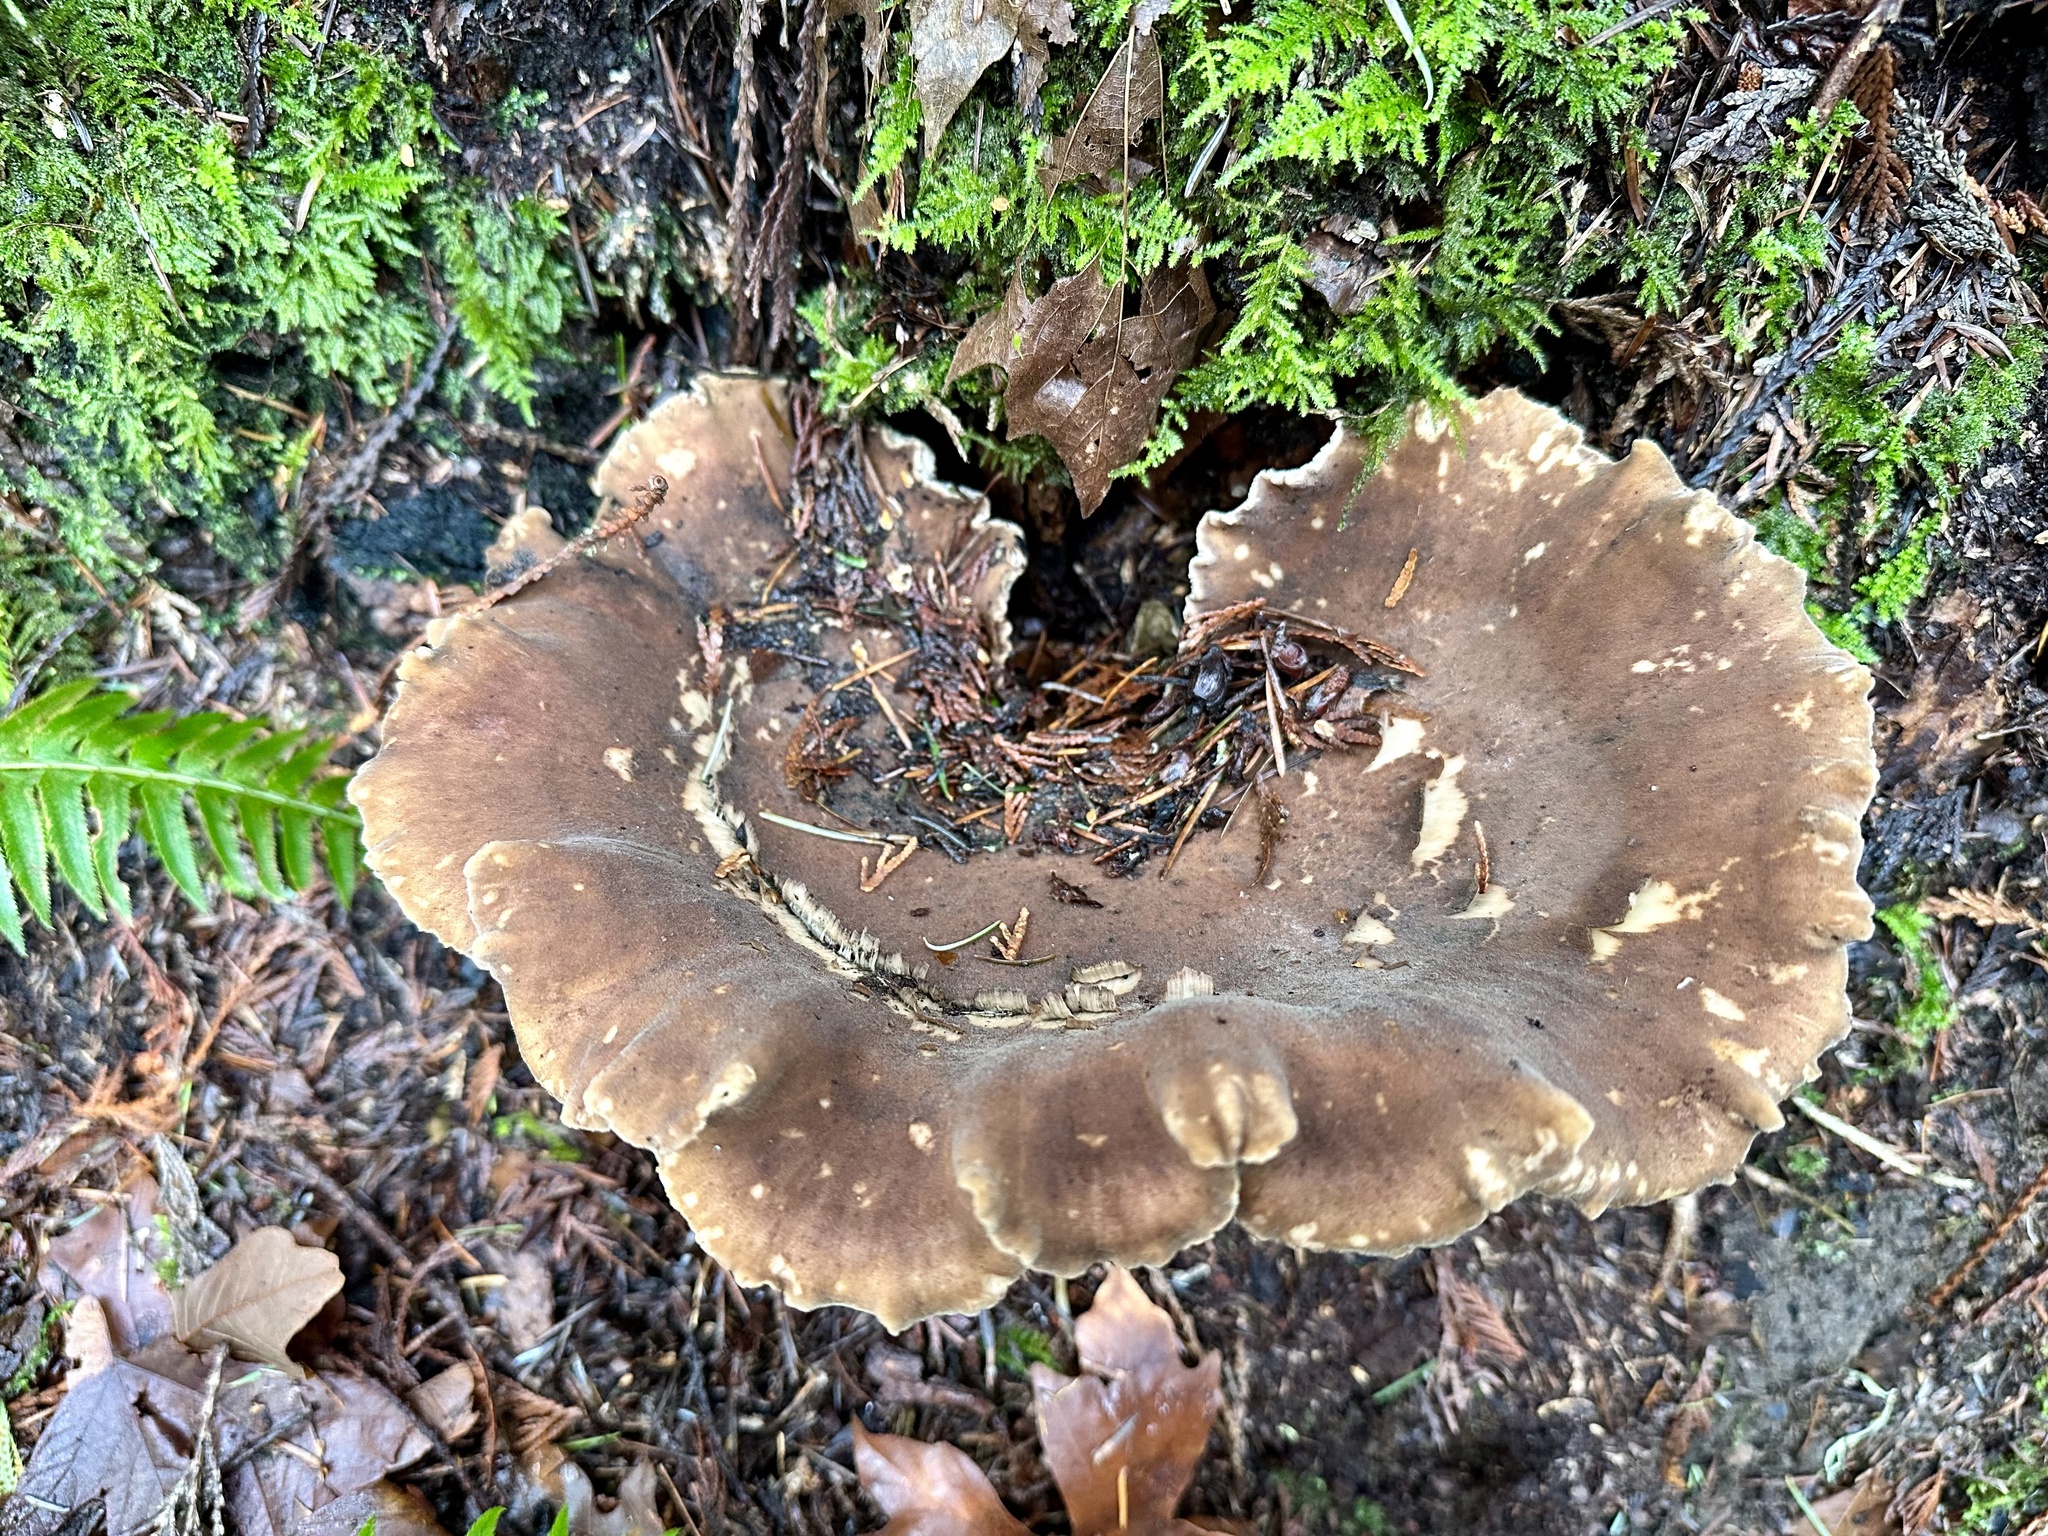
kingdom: Fungi
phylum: Basidiomycota
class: Agaricomycetes
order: Polyporales
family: Dacryobolaceae
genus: Jahnoporus
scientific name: Jahnoporus hirtus
